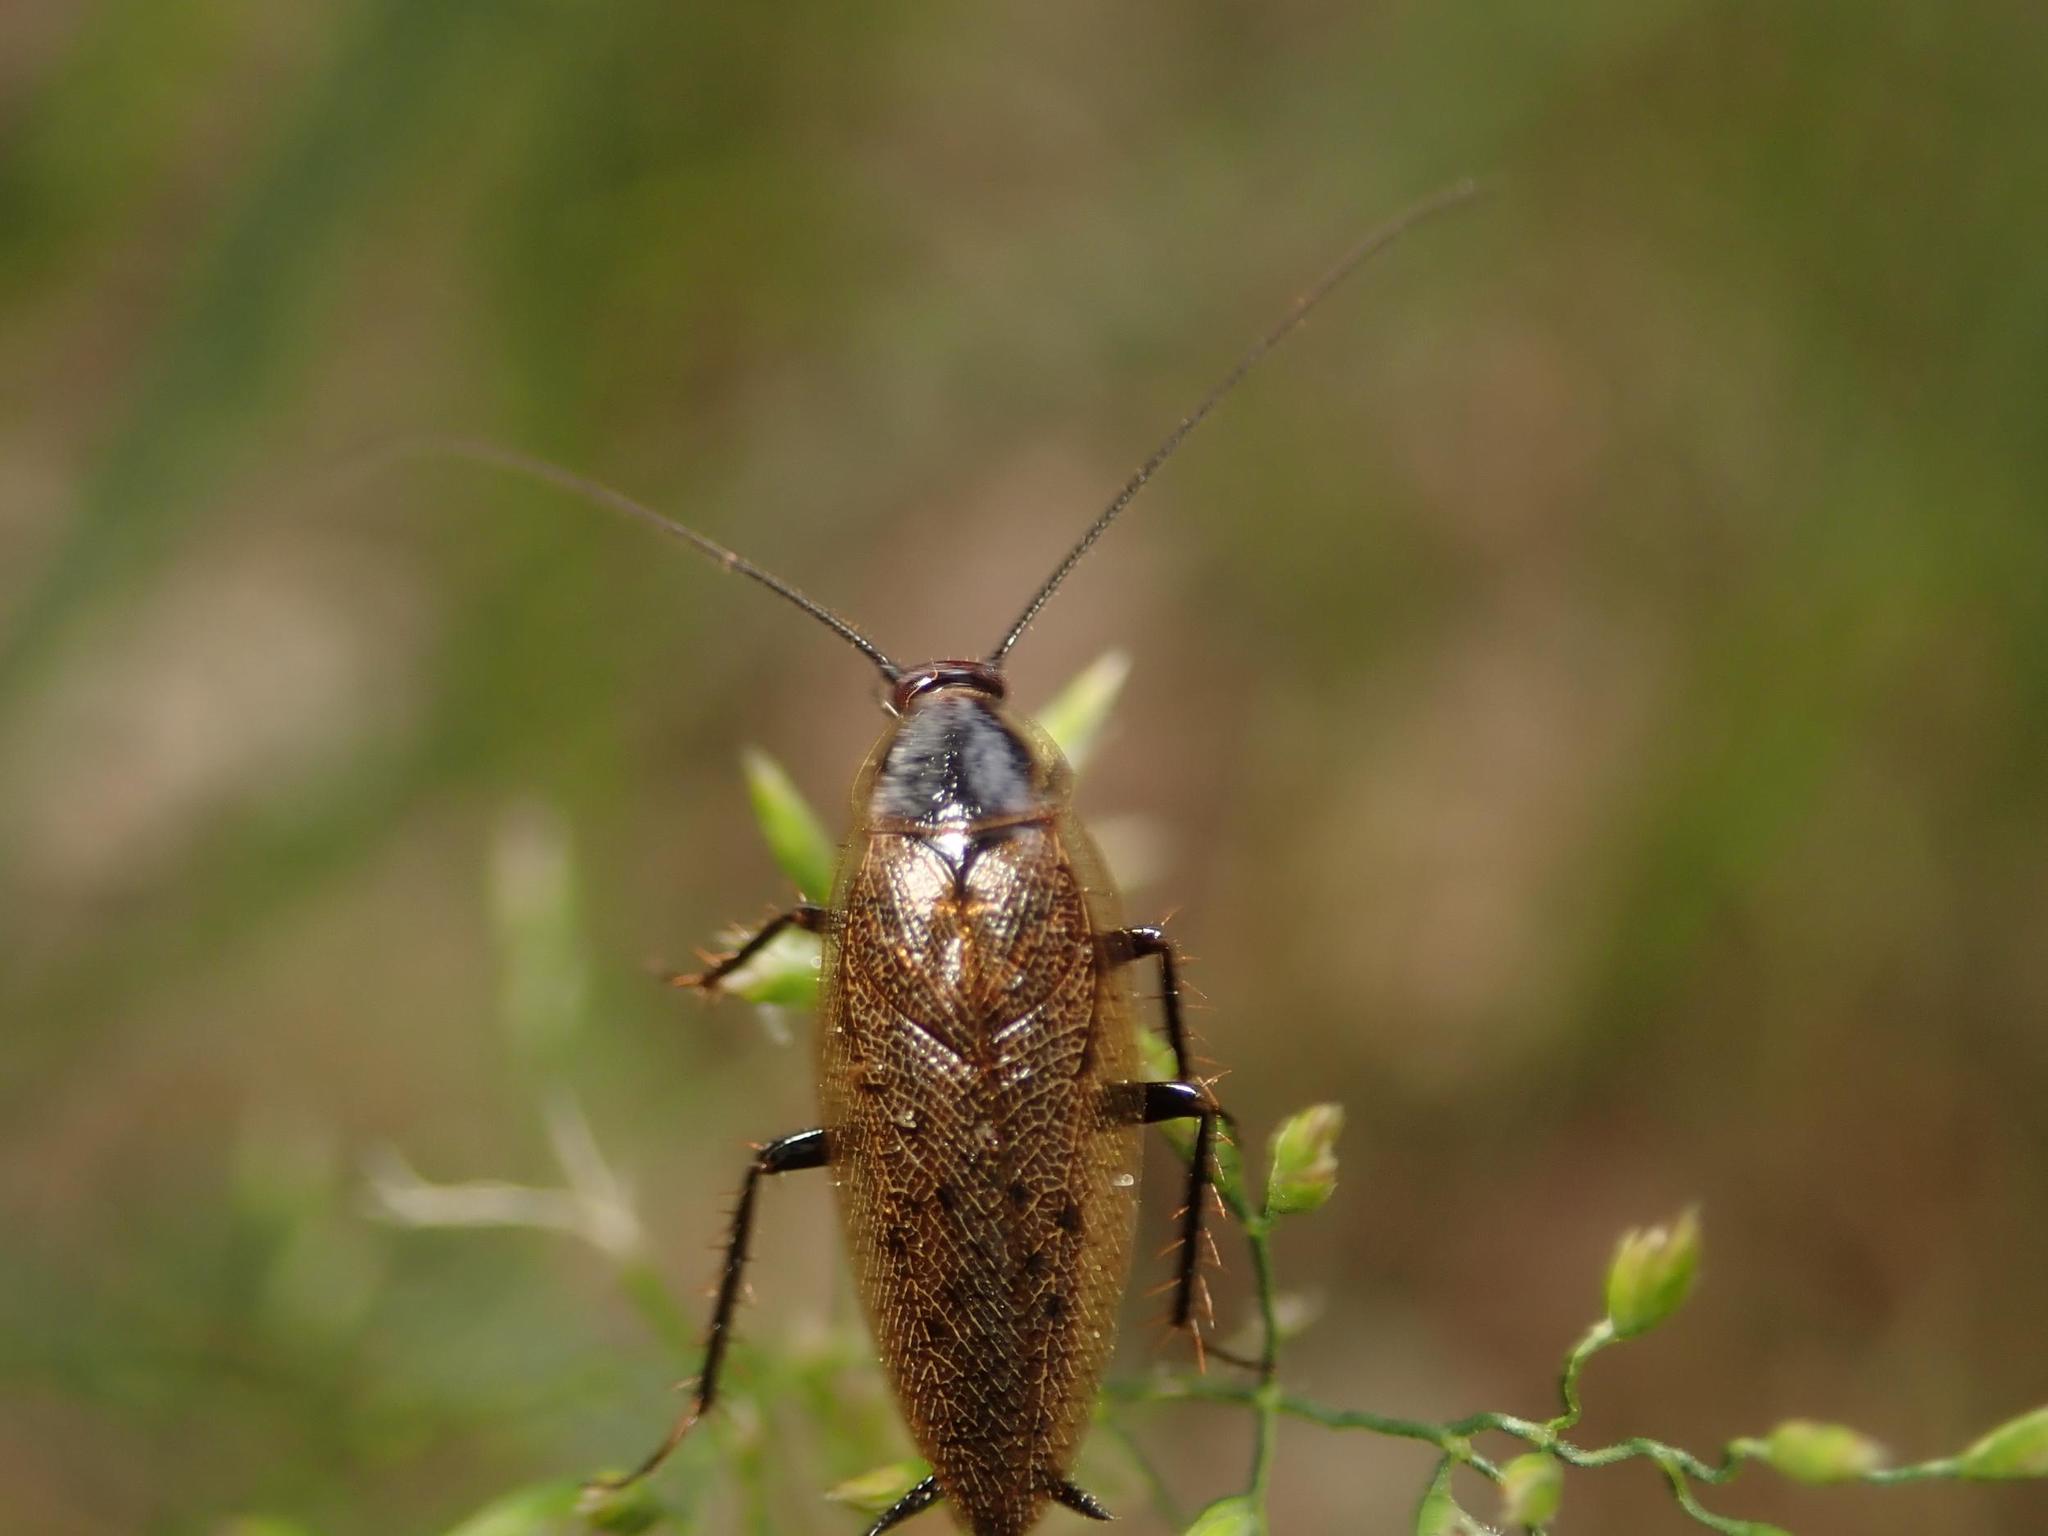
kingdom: Animalia
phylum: Arthropoda
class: Insecta
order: Blattodea
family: Ectobiidae
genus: Ectobius
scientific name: Ectobius lapponicus
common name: Dusky cockroach
